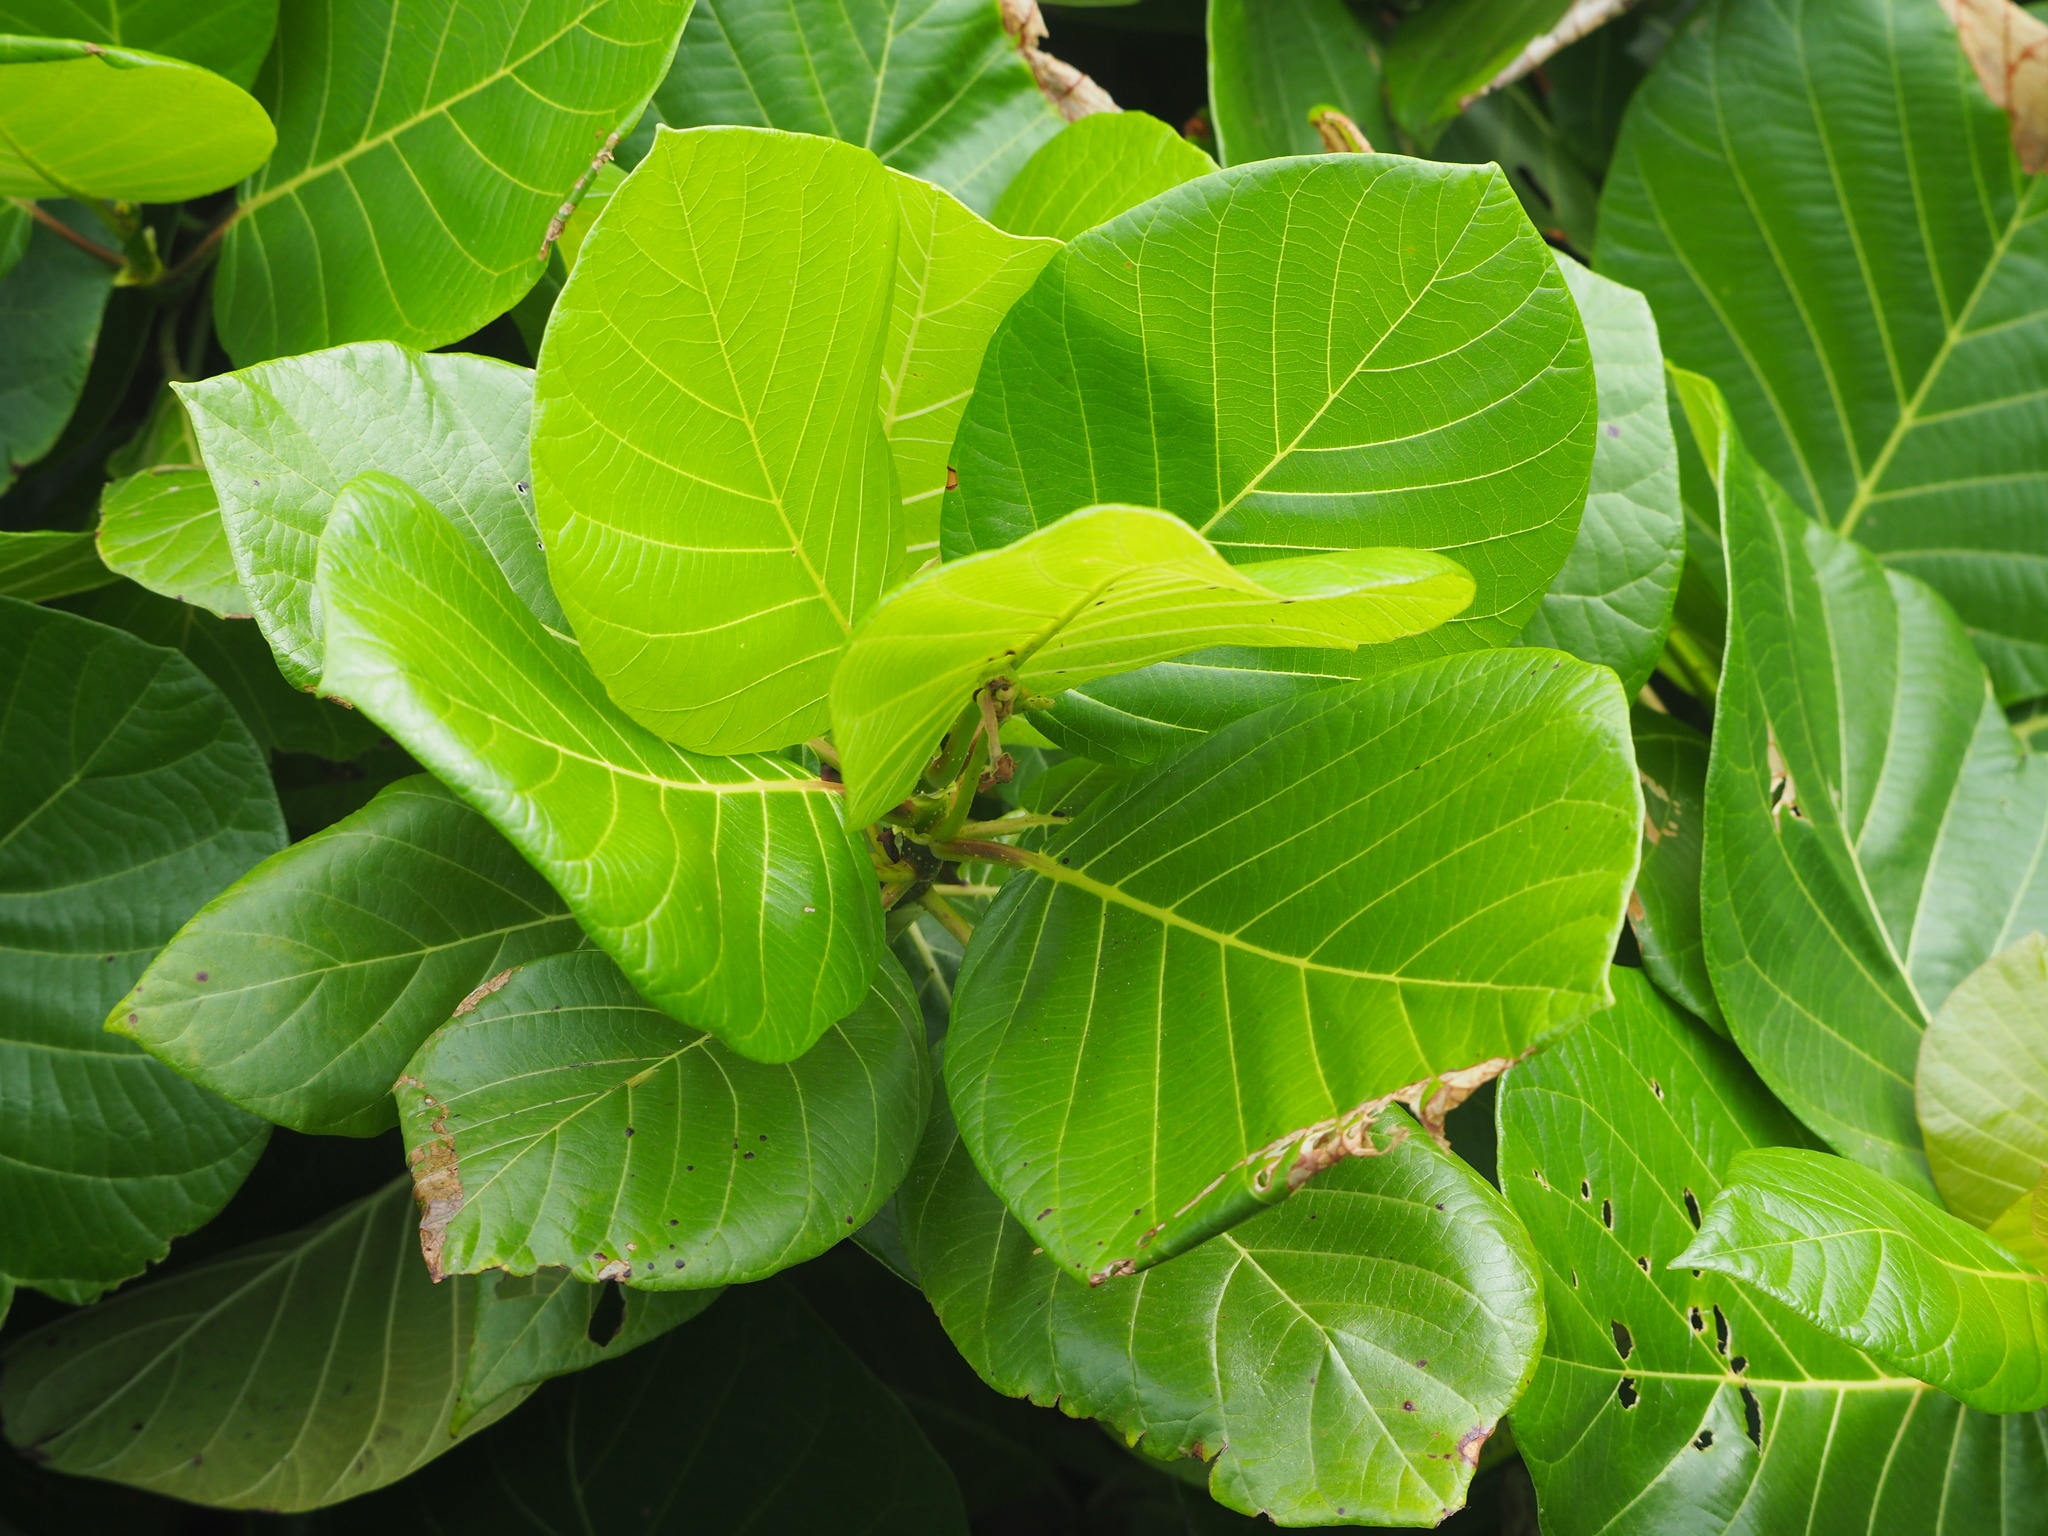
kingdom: Plantae
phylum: Tracheophyta
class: Magnoliopsida
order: Gentianales
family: Rubiaceae
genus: Guettarda
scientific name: Guettarda speciosa
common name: Sea randa
